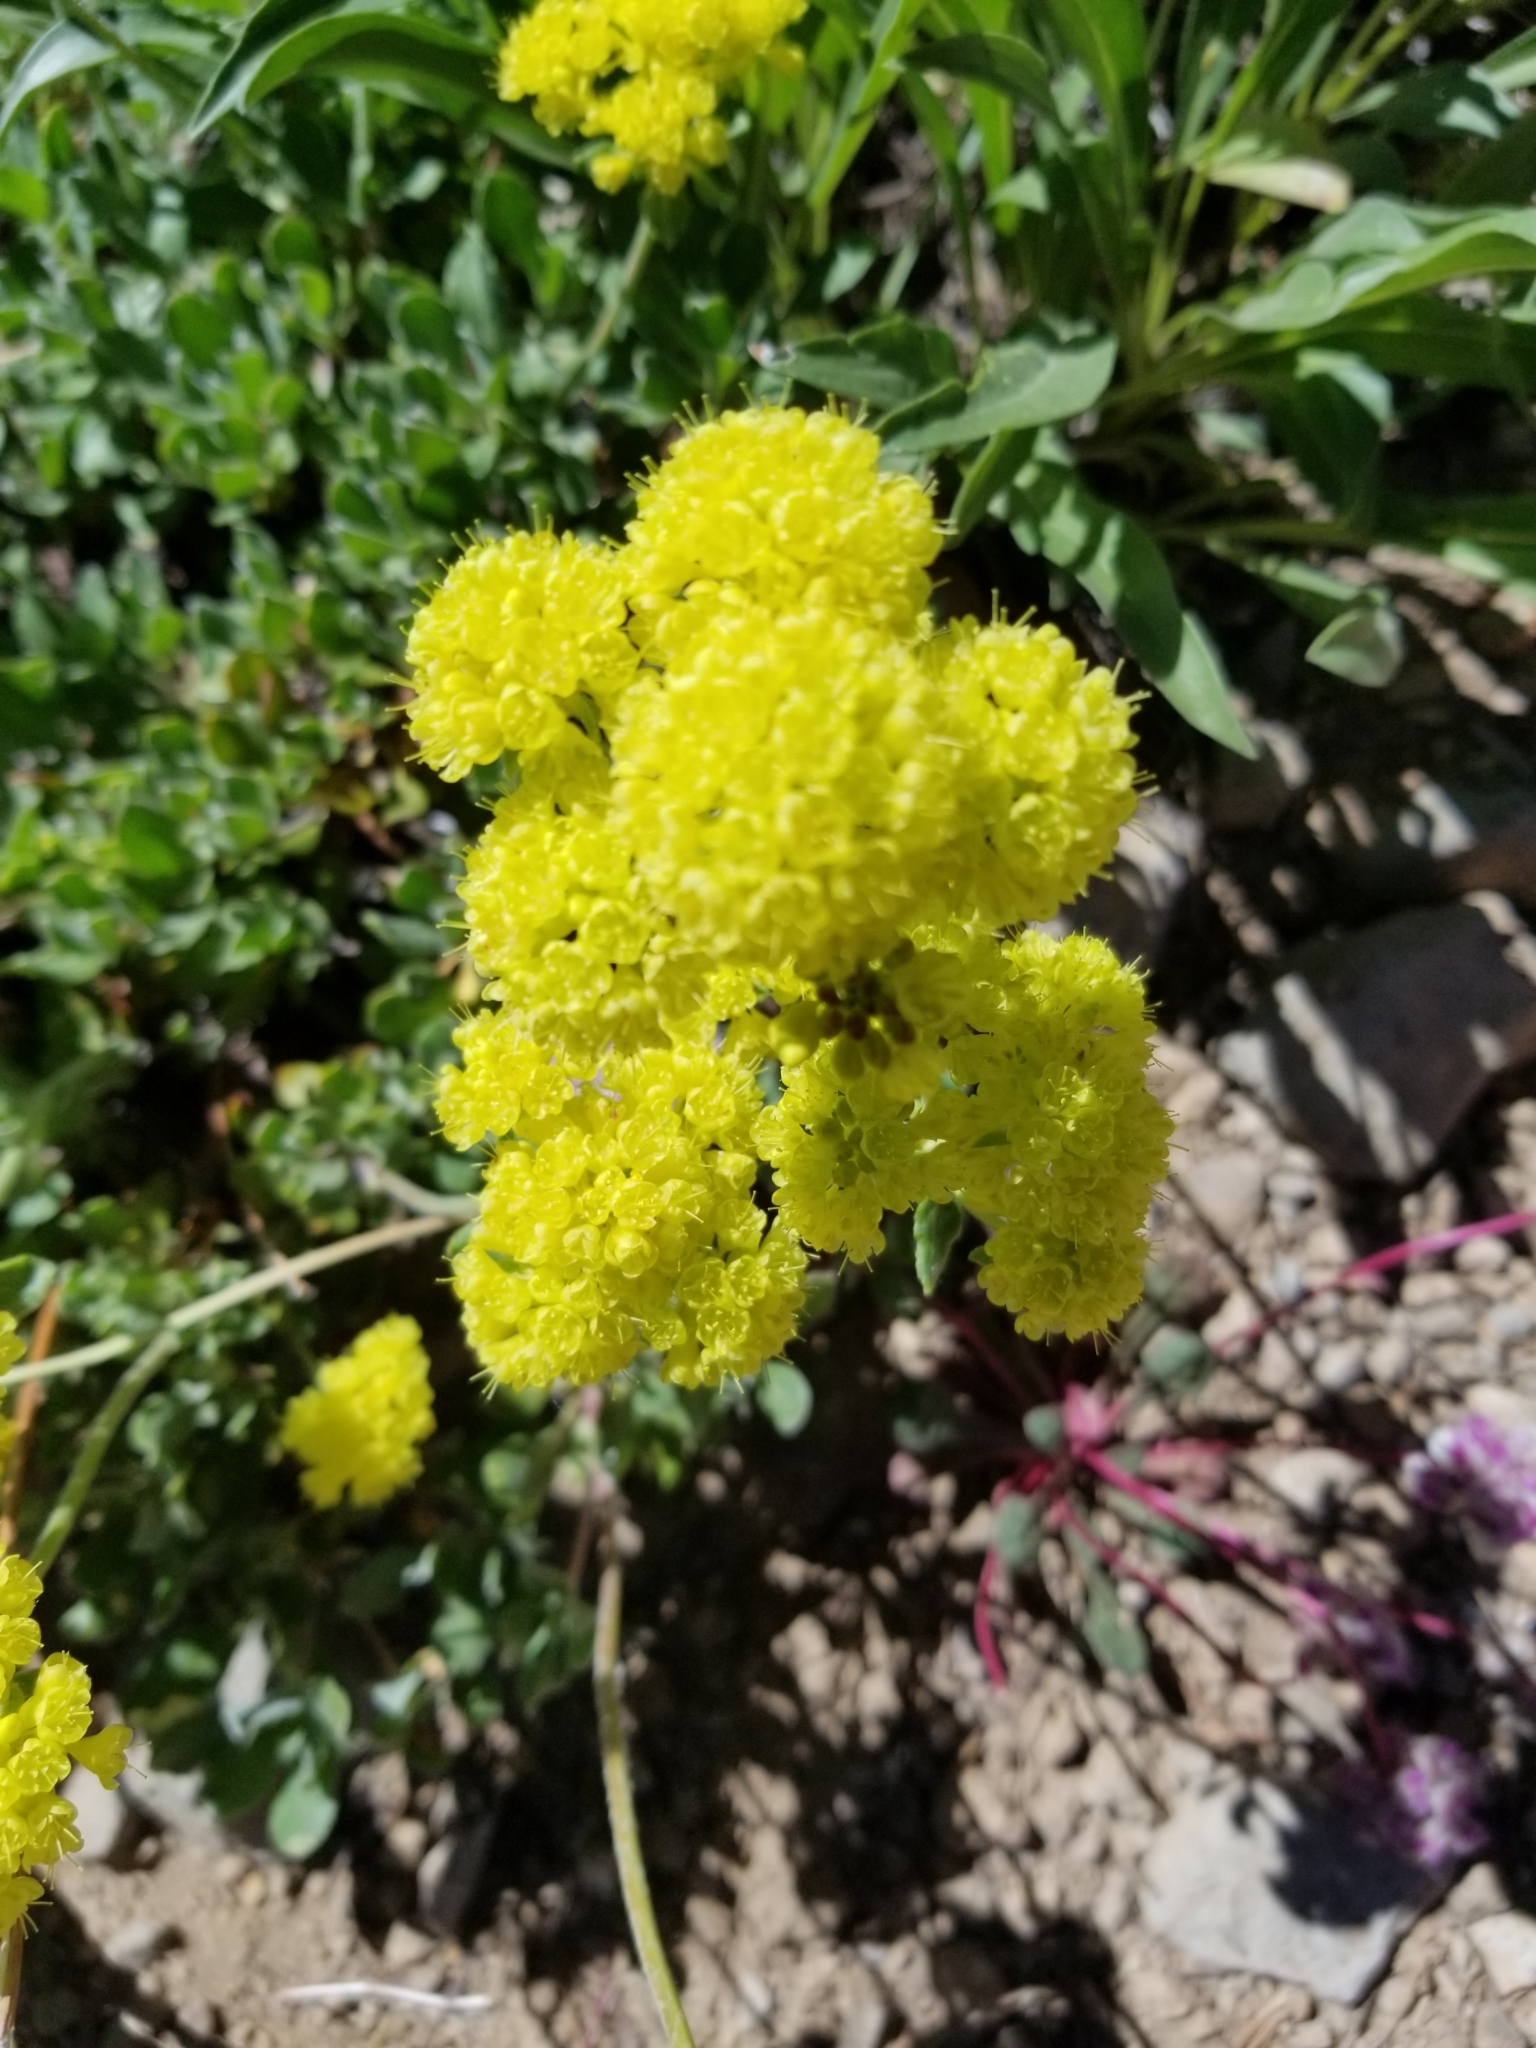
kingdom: Plantae
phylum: Tracheophyta
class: Magnoliopsida
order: Caryophyllales
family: Polygonaceae
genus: Eriogonum
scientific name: Eriogonum umbellatum
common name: Sulfur-buckwheat
